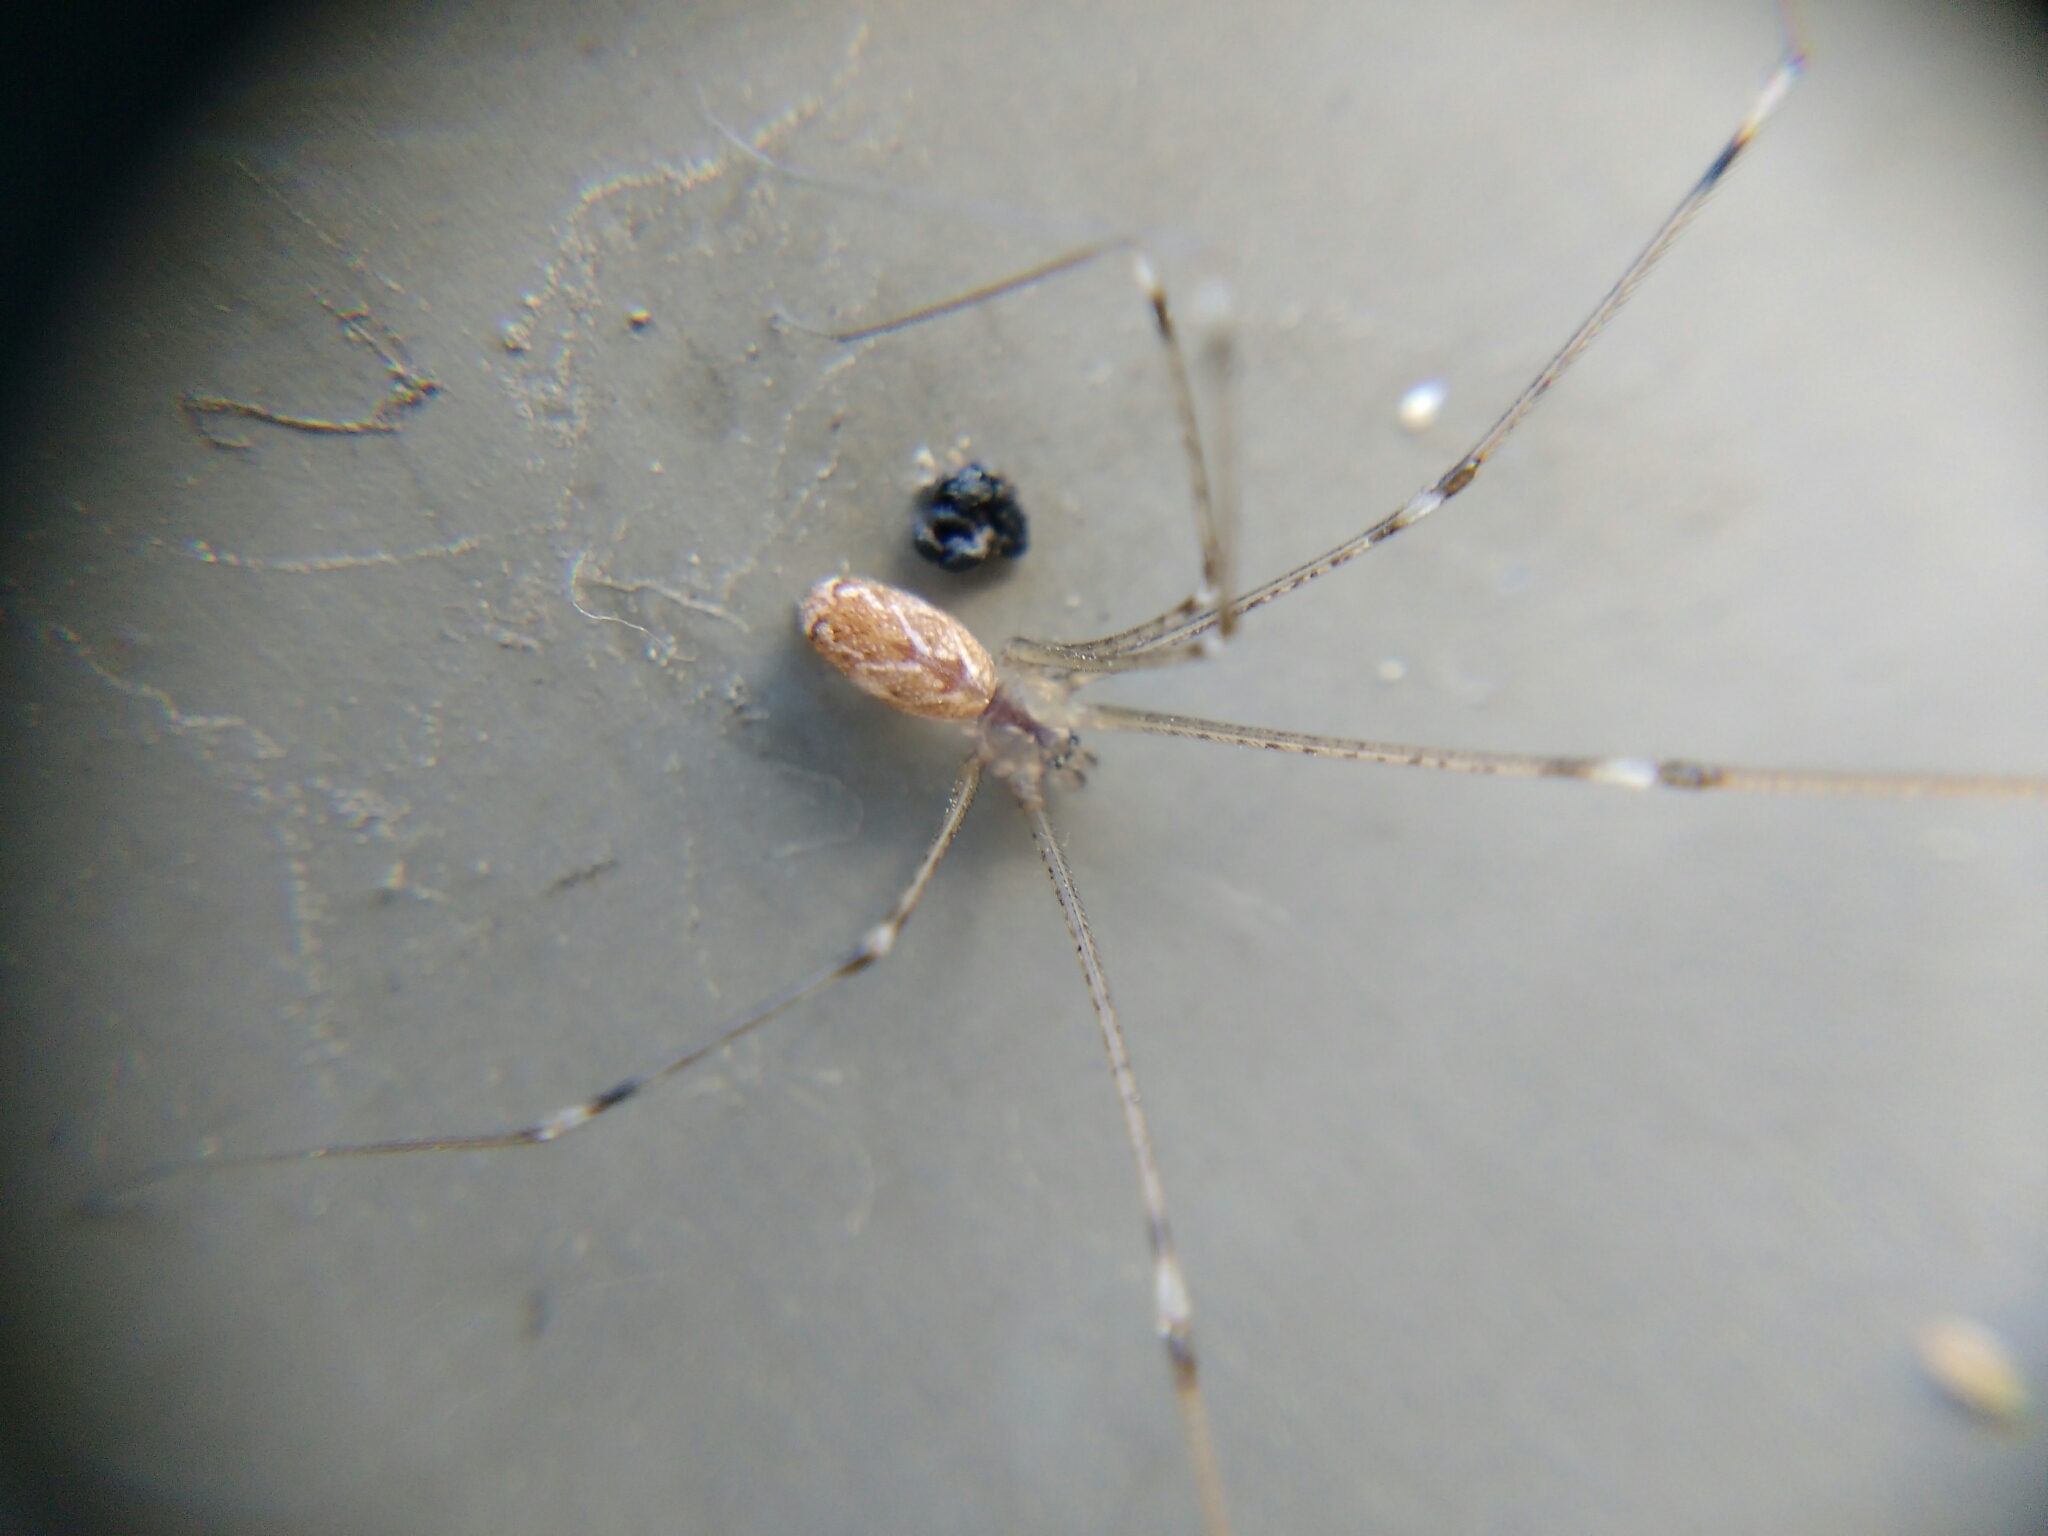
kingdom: Animalia
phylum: Arthropoda
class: Arachnida
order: Araneae
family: Pholcidae
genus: Holocnemus
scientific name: Holocnemus pluchei
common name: Marbled cellar spider
